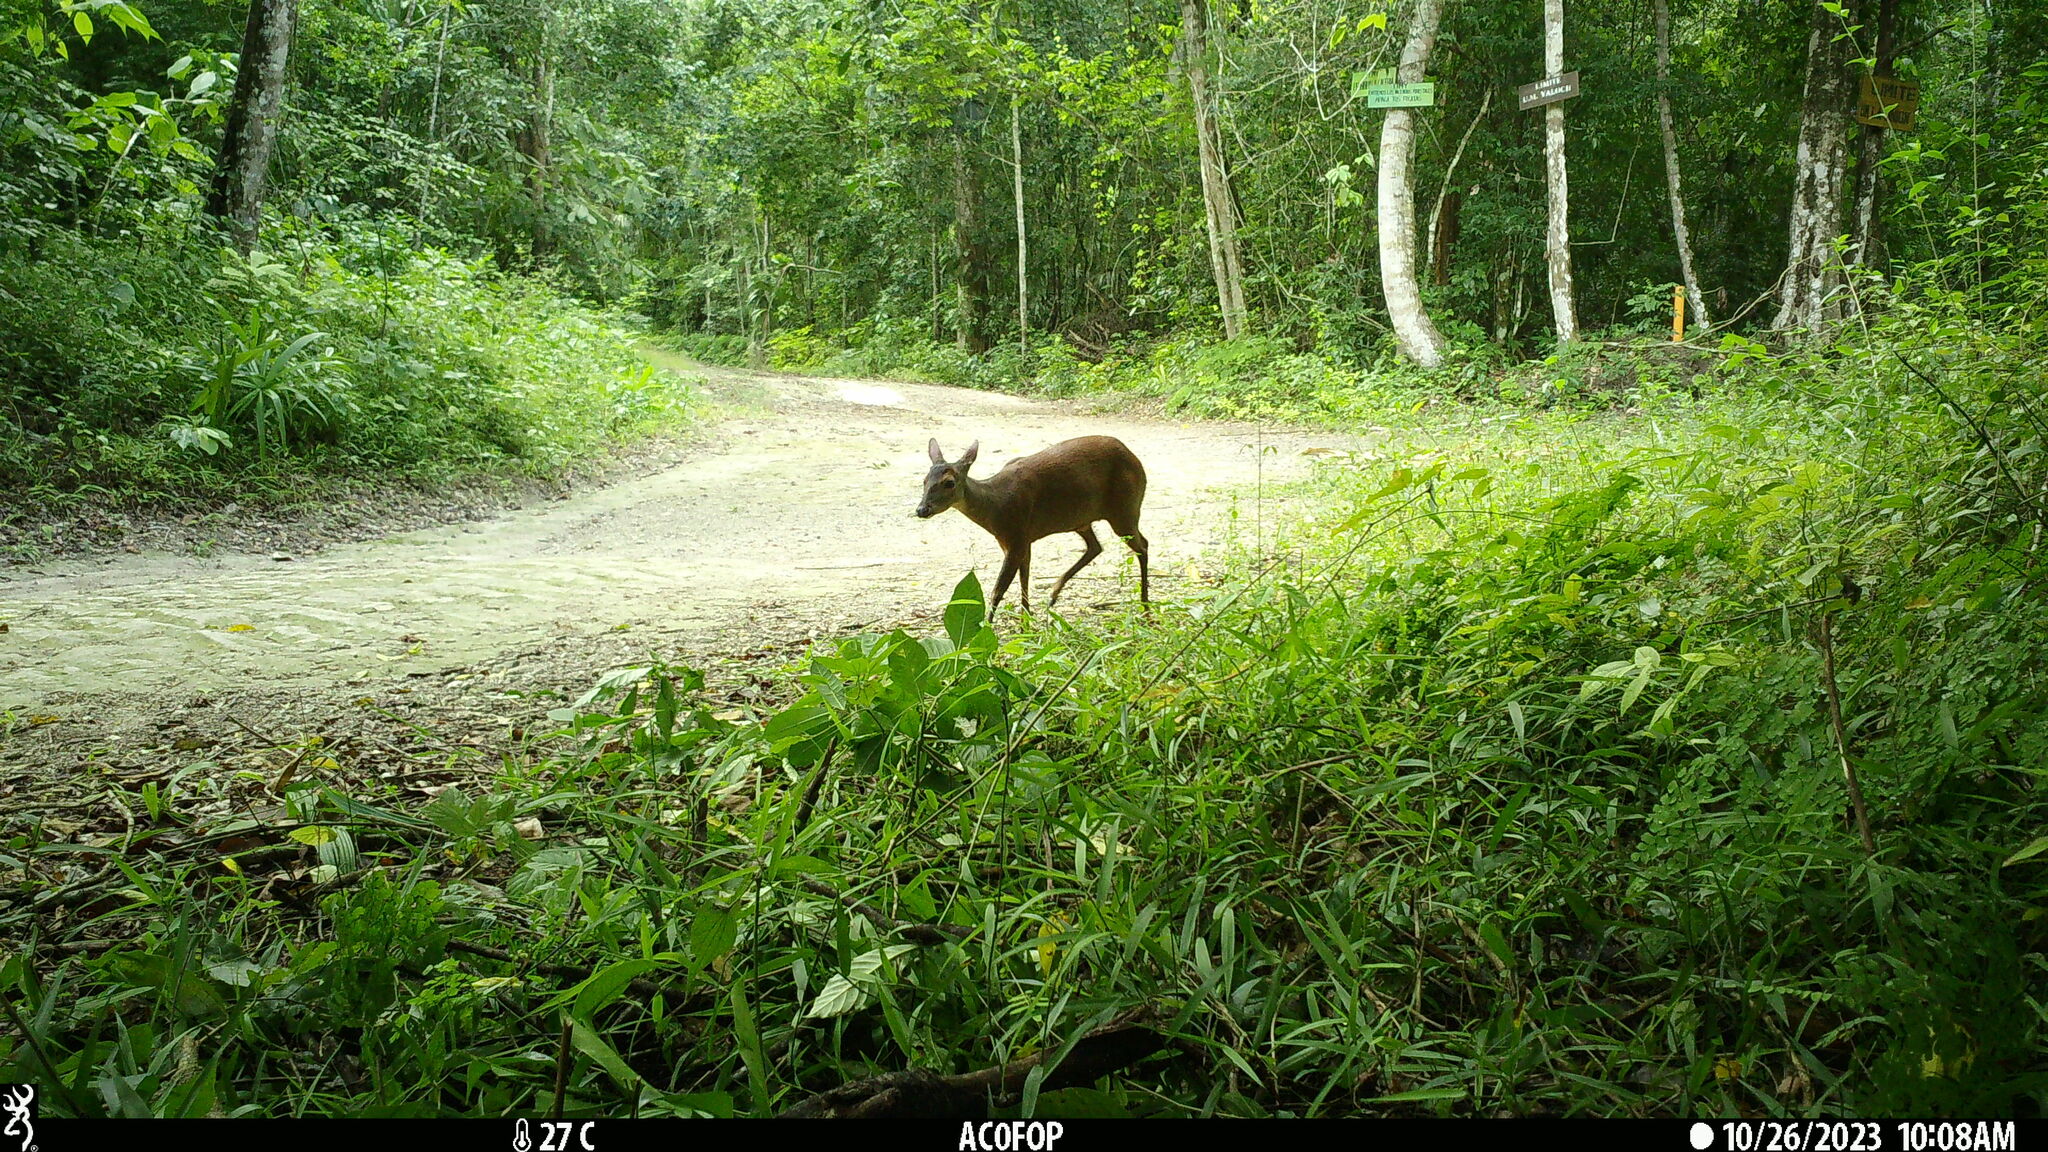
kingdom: Animalia
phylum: Chordata
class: Mammalia
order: Artiodactyla
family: Cervidae
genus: Mazama
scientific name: Mazama temama
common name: Central american red brocket
